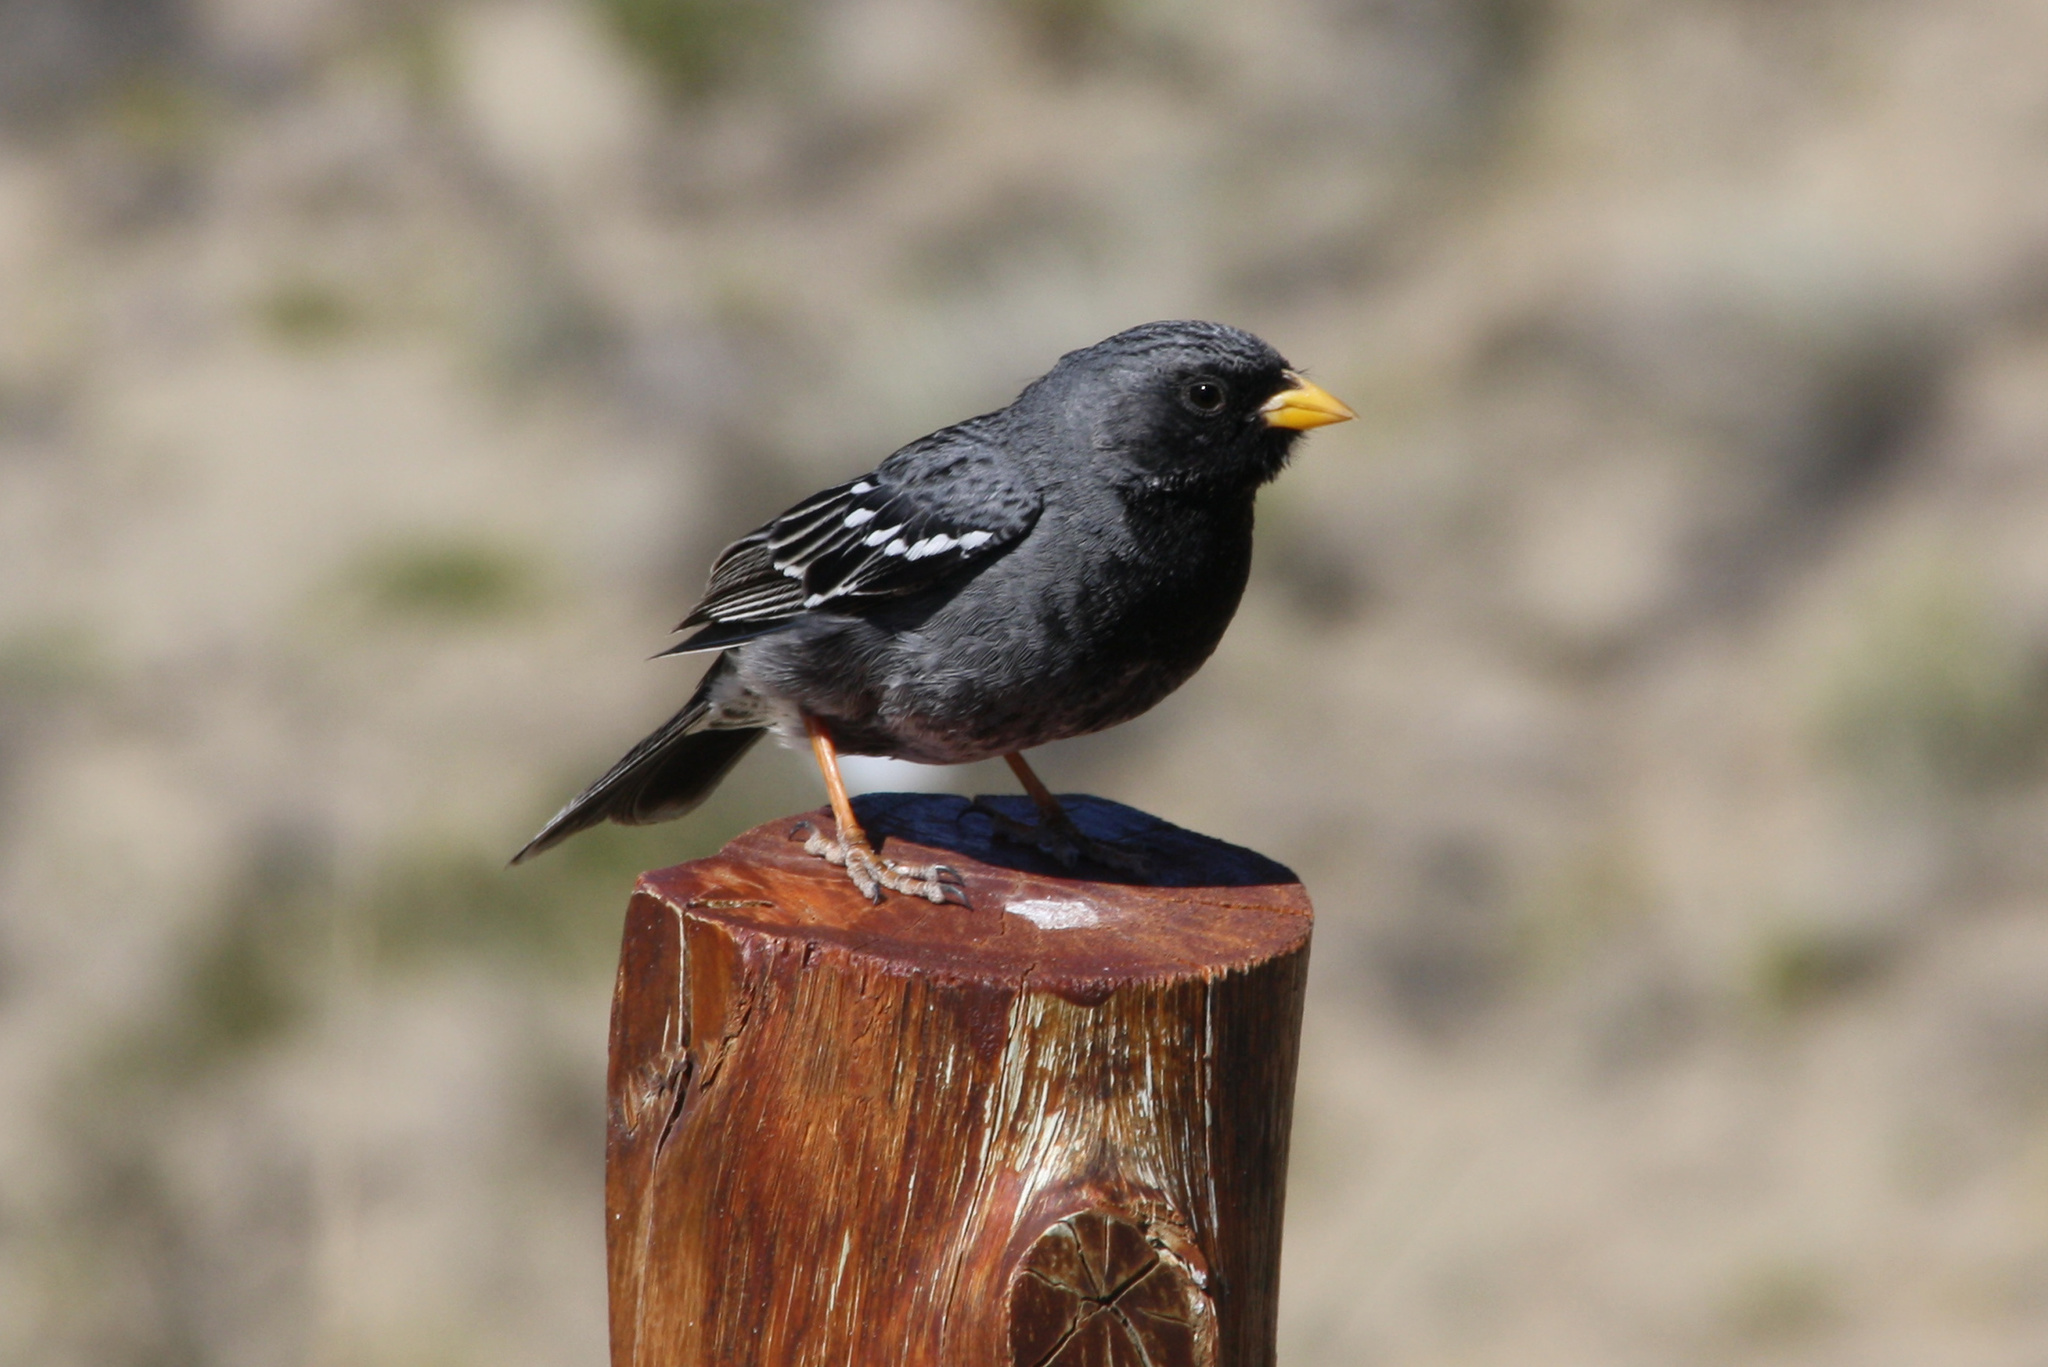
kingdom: Animalia
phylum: Chordata
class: Aves
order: Passeriformes
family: Thraupidae
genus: Rhopospina
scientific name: Rhopospina fruticeti
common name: Mourning sierra finch
